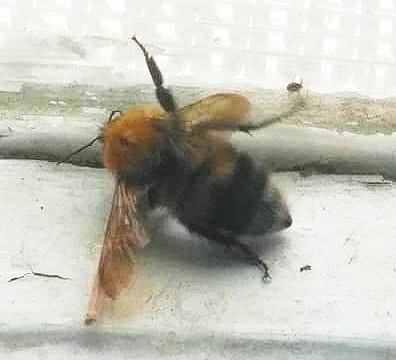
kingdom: Animalia
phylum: Arthropoda
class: Insecta
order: Hymenoptera
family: Apidae
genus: Bombus
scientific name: Bombus hypnorum
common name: New garden bumblebee
